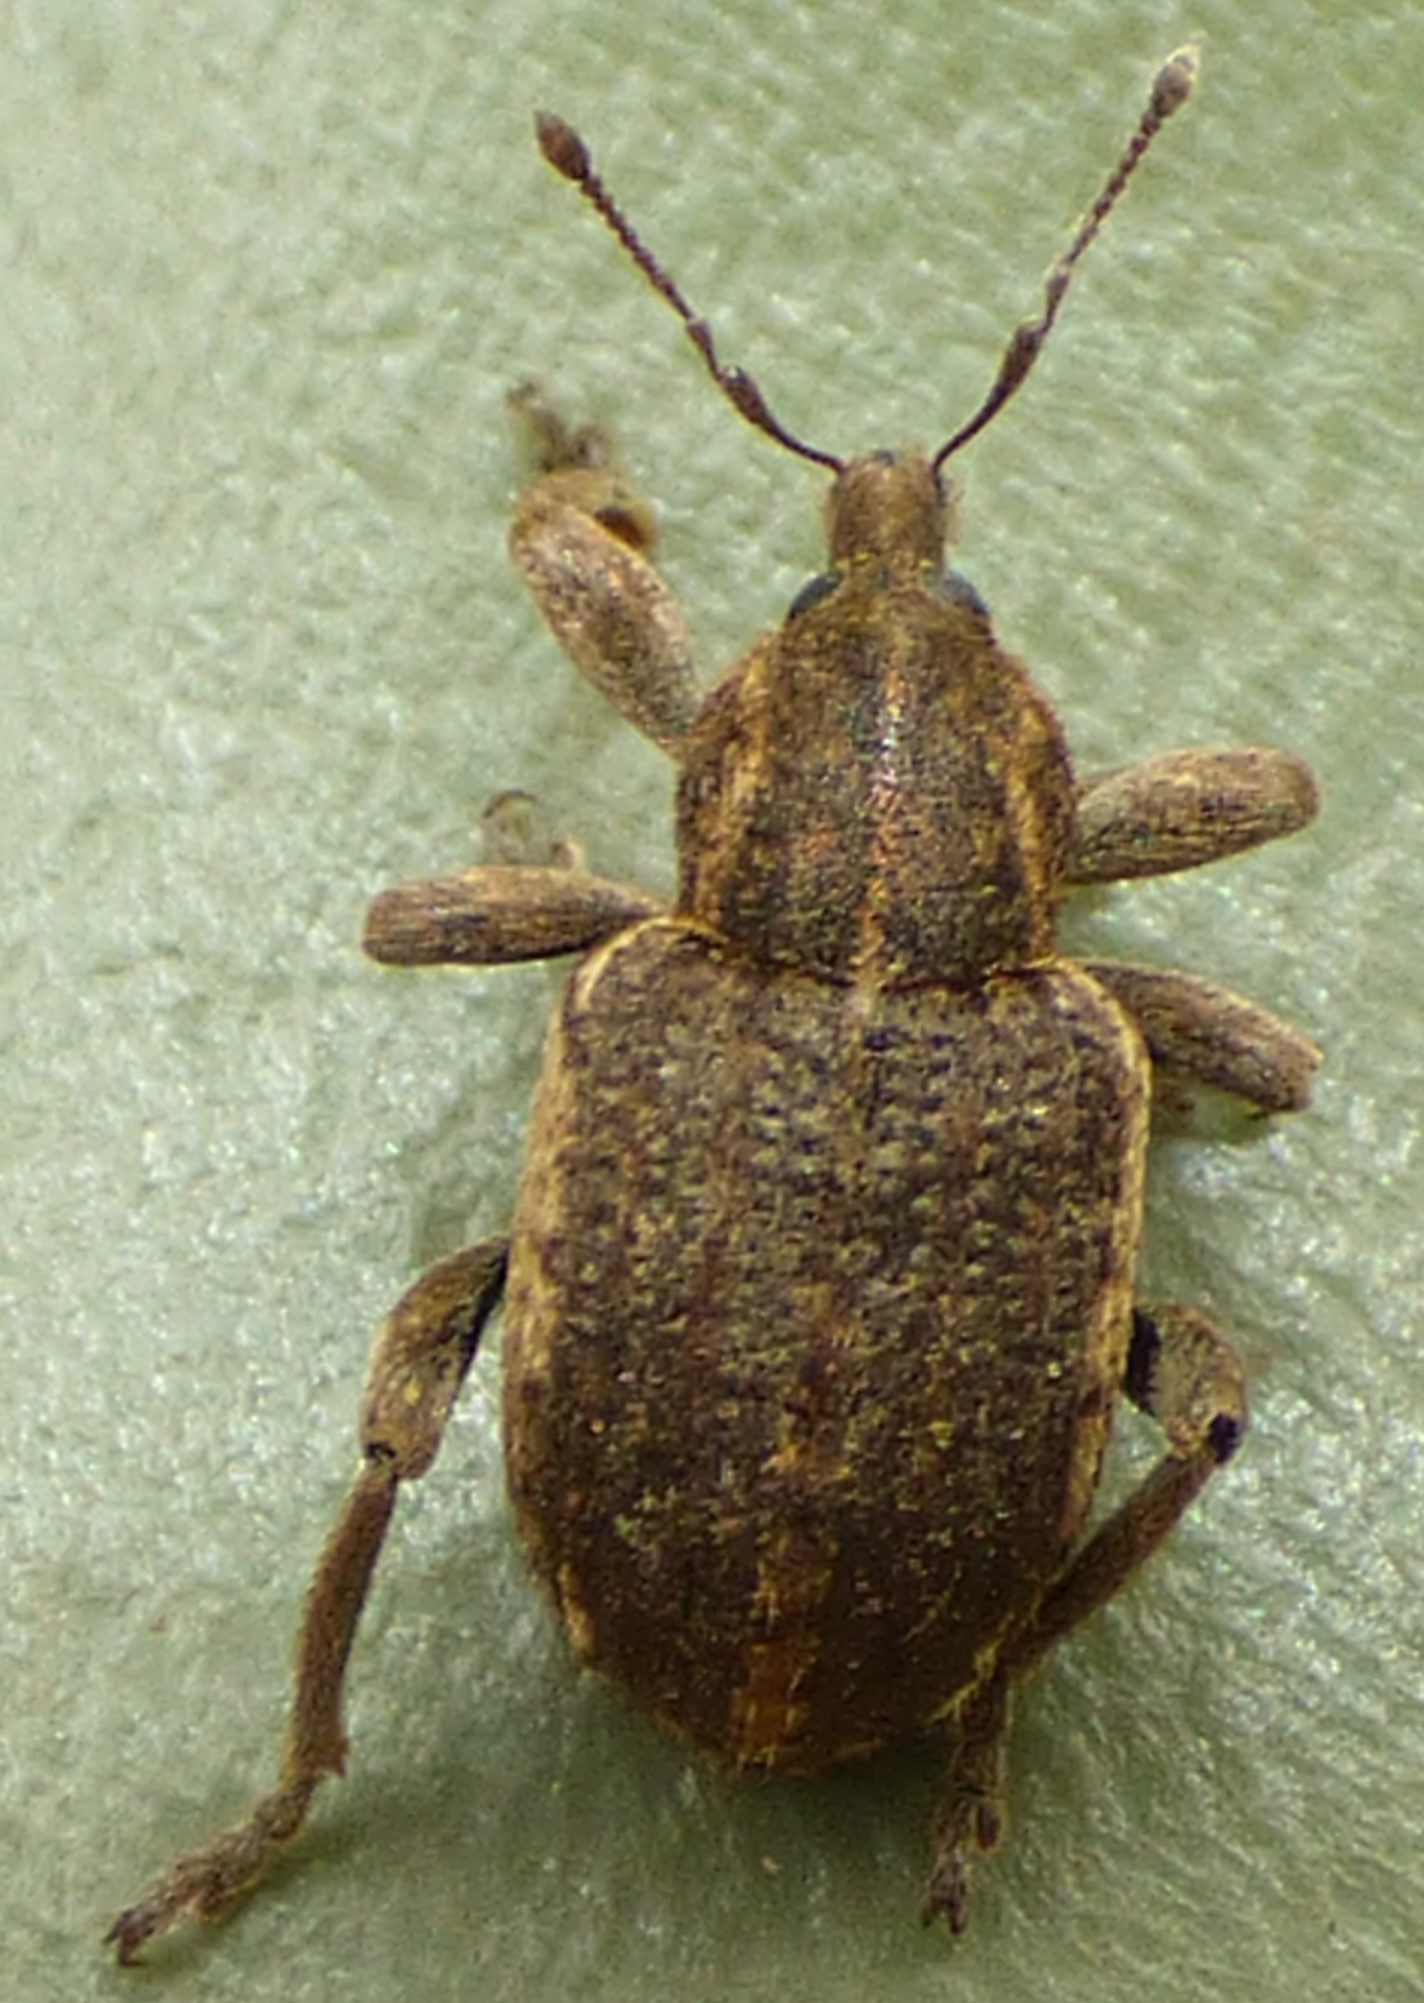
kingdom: Animalia
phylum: Arthropoda
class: Insecta
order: Coleoptera
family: Curculionidae
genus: Brachypera
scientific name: Brachypera zoilus
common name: Clover leaf weevil
